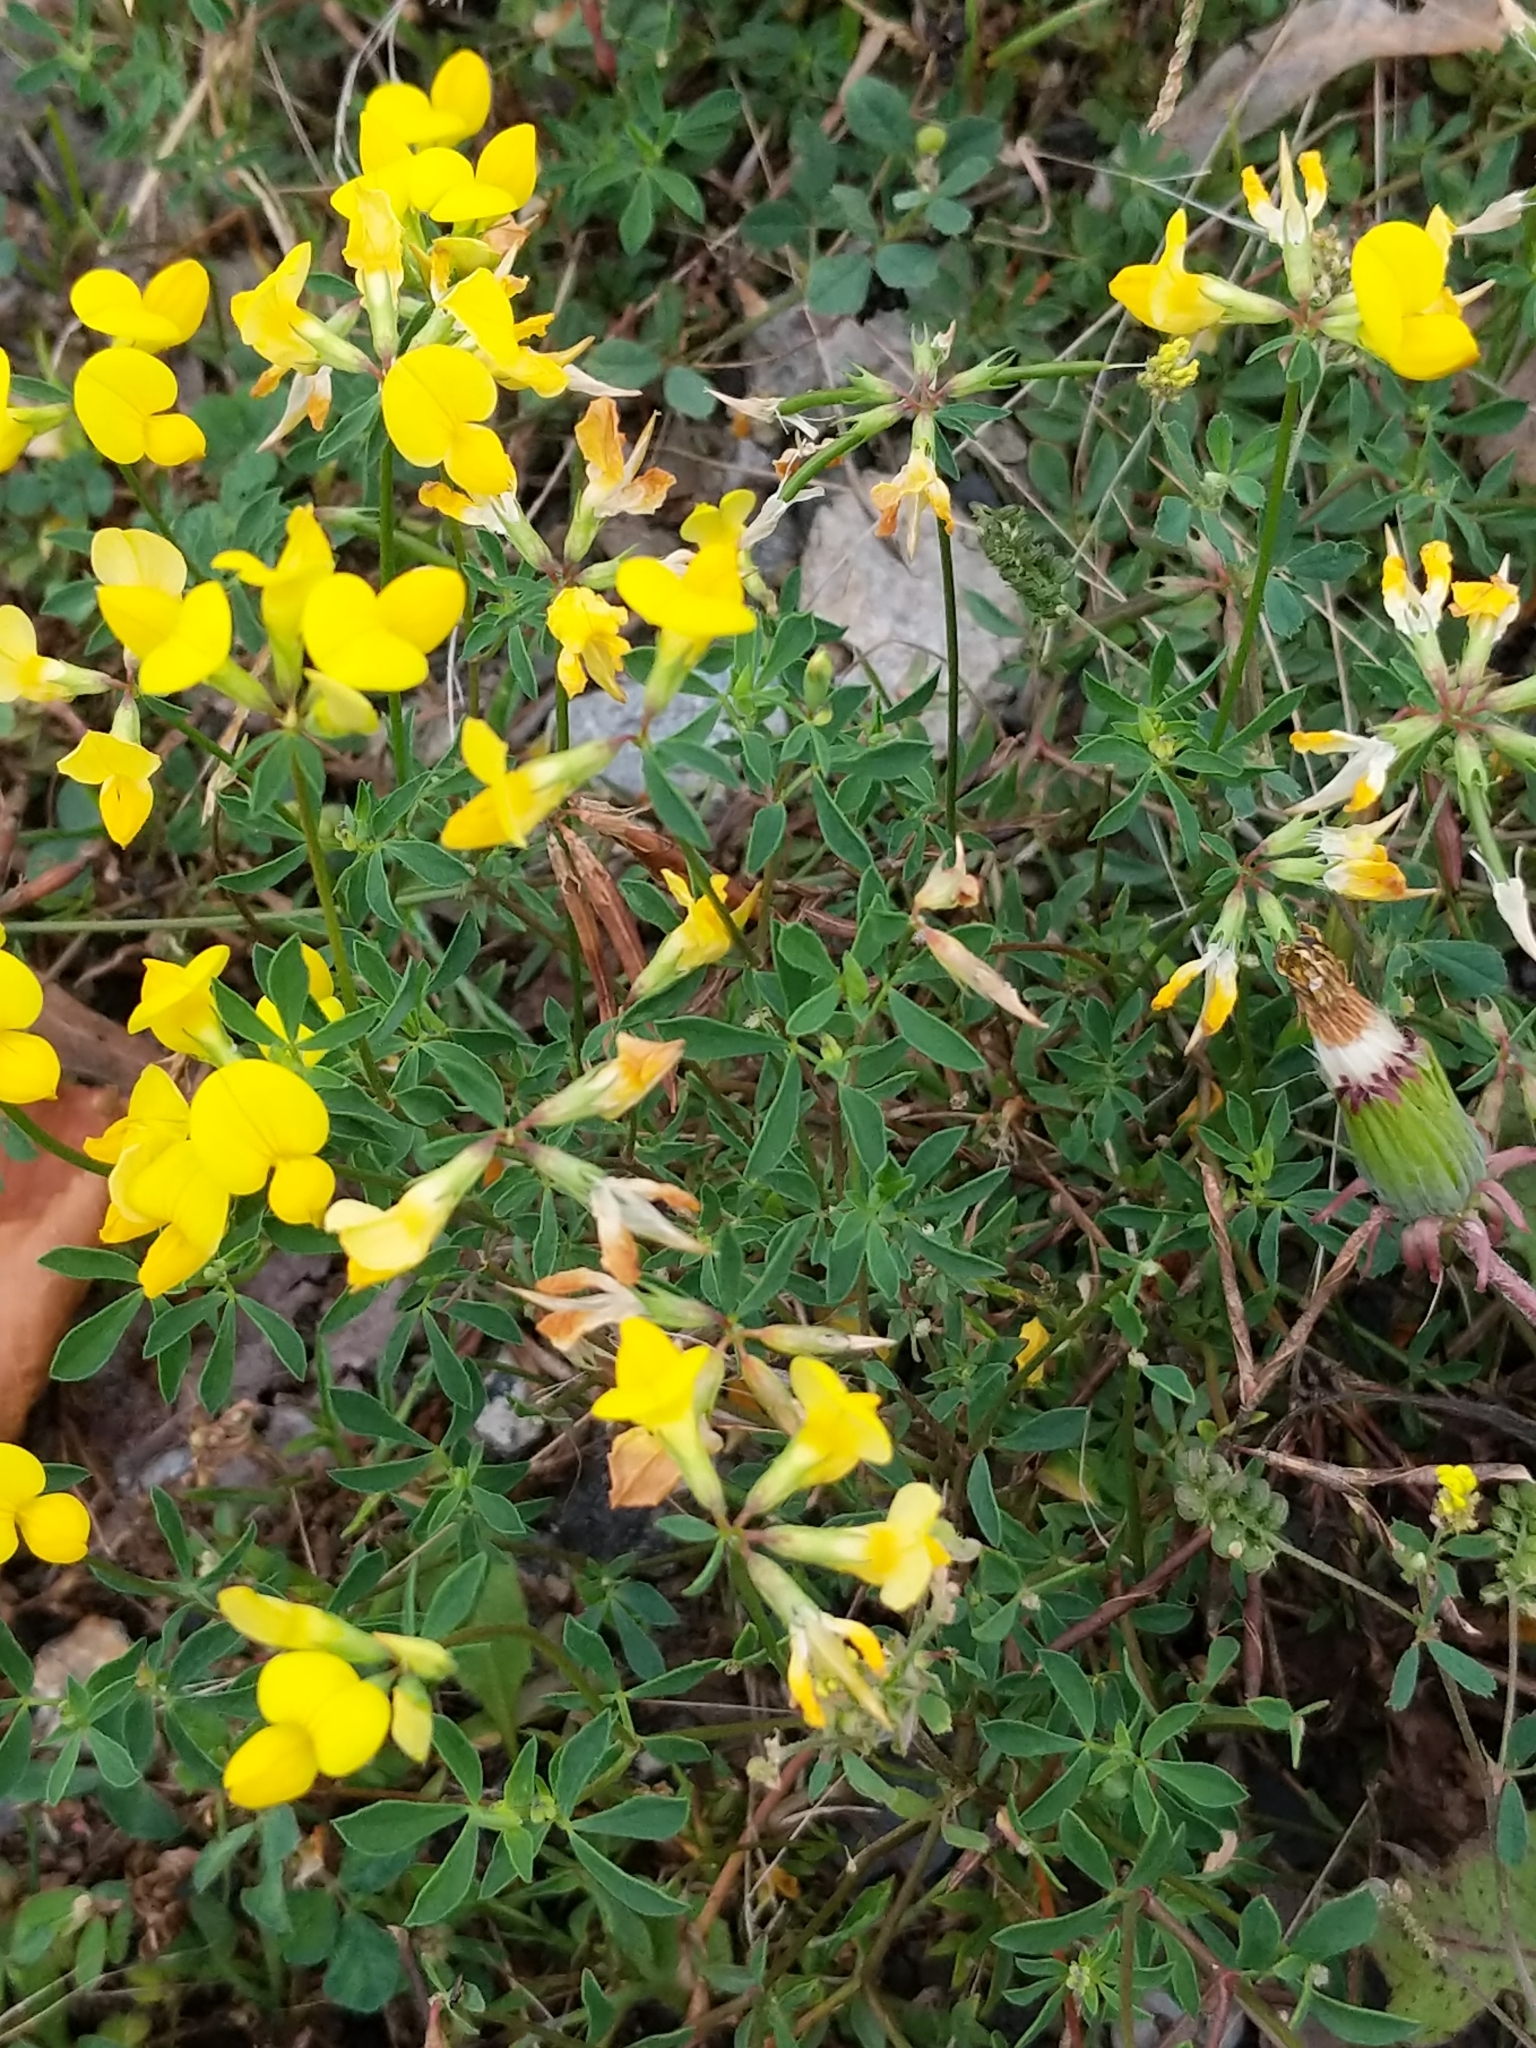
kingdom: Plantae
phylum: Tracheophyta
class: Magnoliopsida
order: Fabales
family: Fabaceae
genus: Lotus
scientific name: Lotus corniculatus
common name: Common bird's-foot-trefoil
